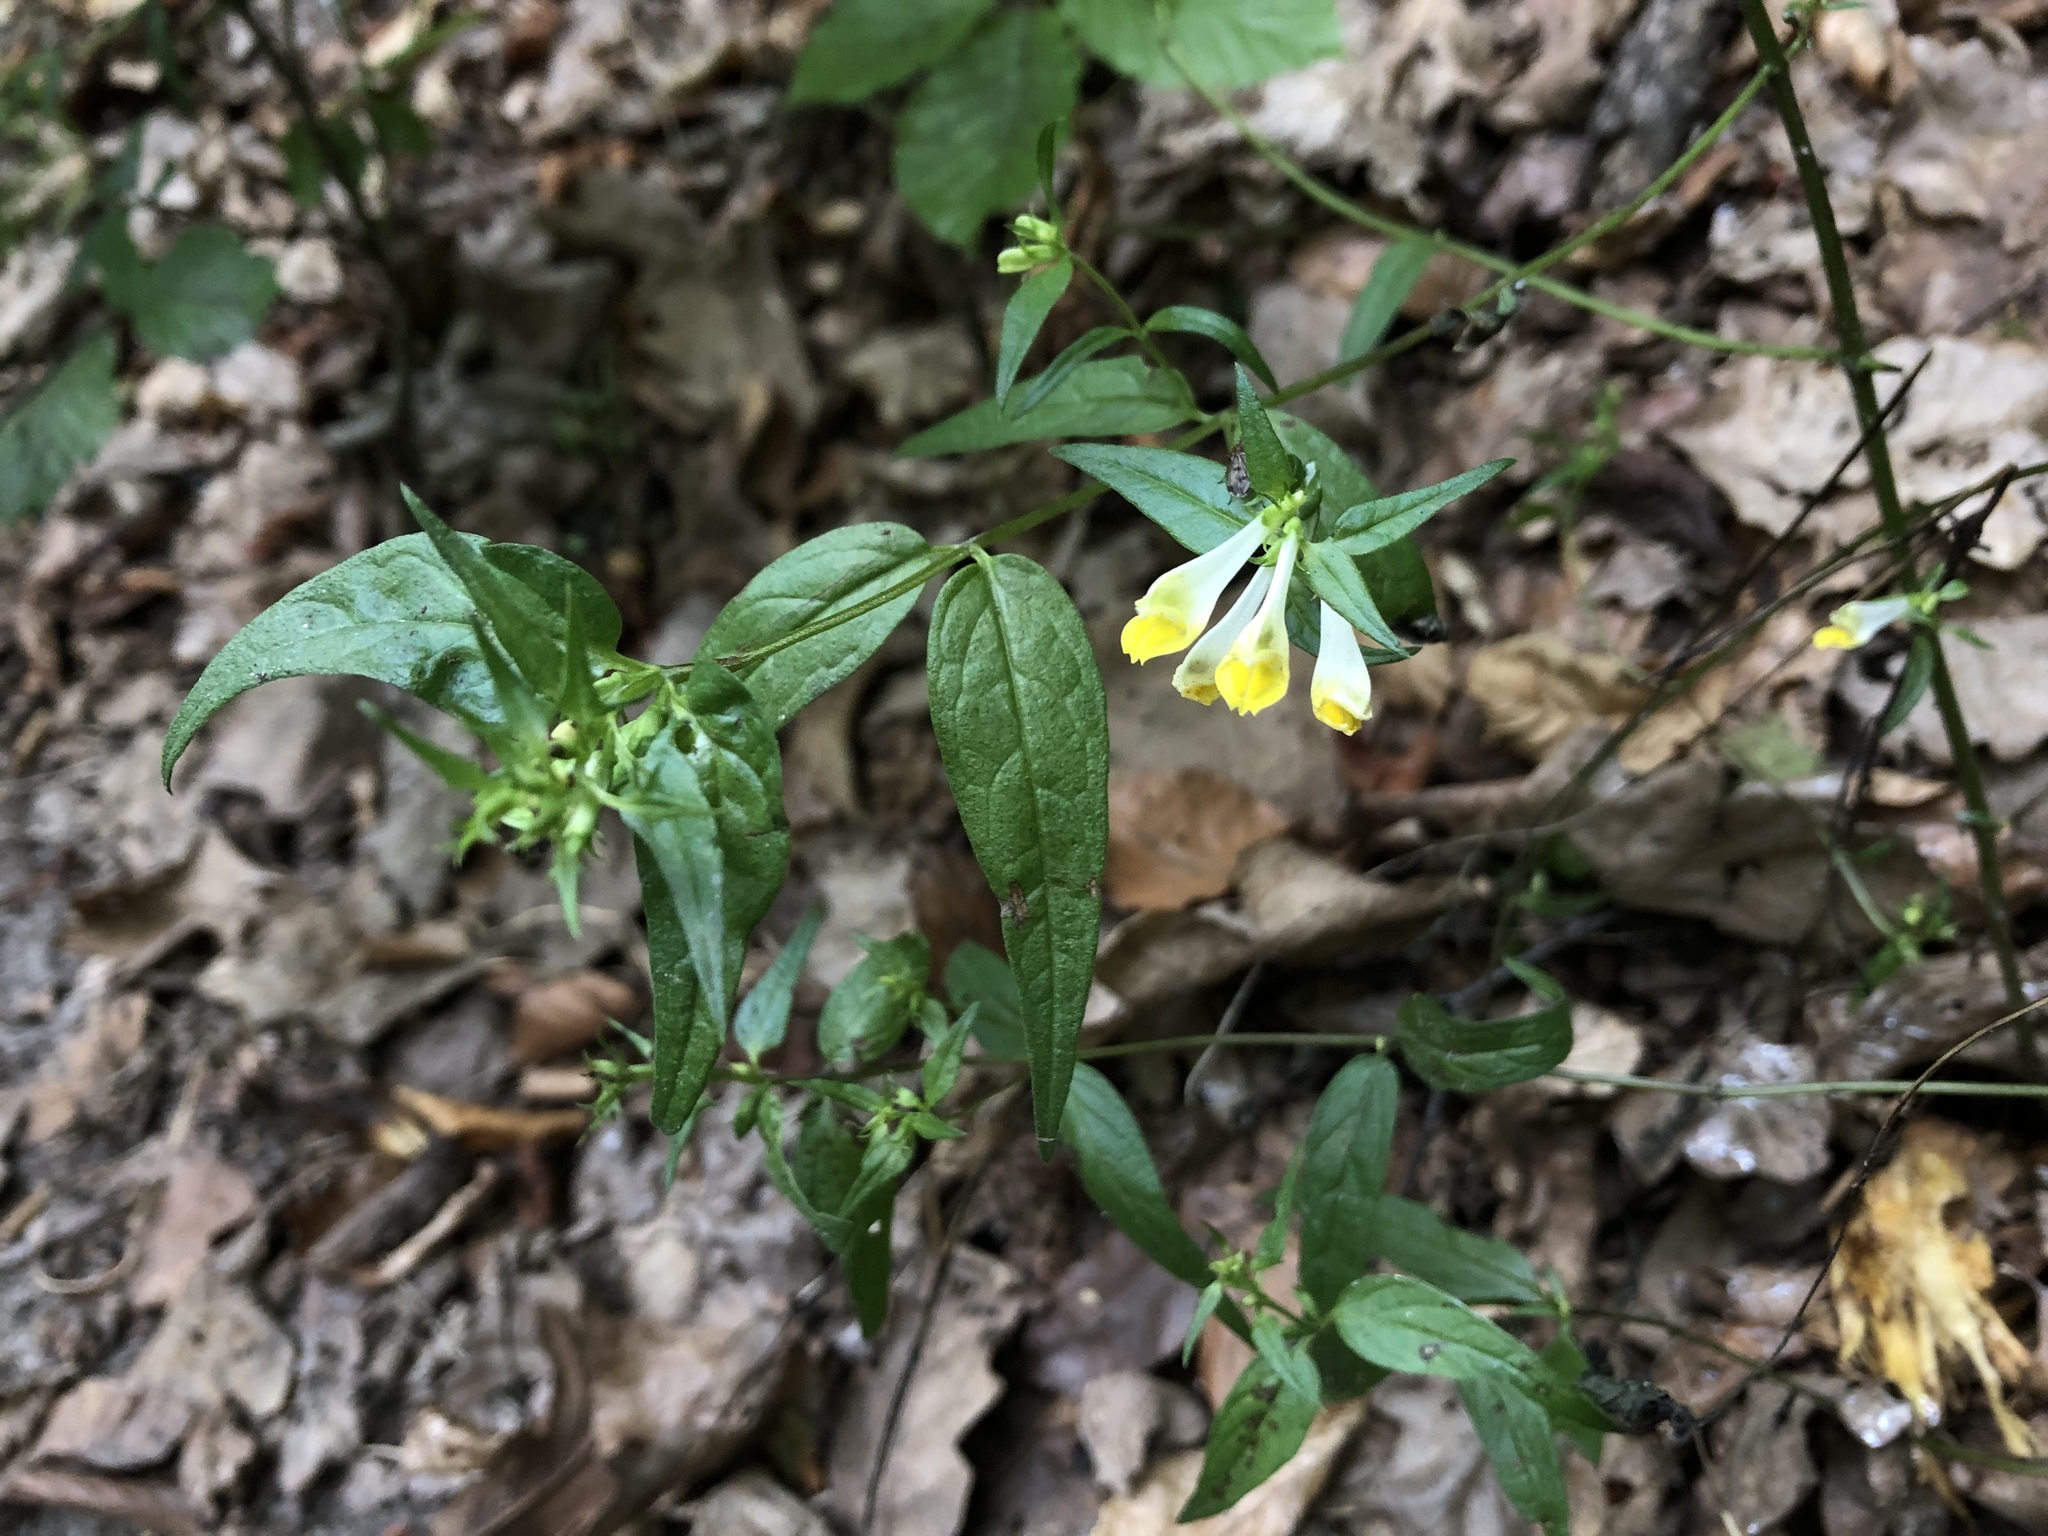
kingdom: Plantae
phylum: Tracheophyta
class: Magnoliopsida
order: Lamiales
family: Orobanchaceae
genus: Melampyrum
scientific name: Melampyrum pratense
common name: Common cow-wheat
